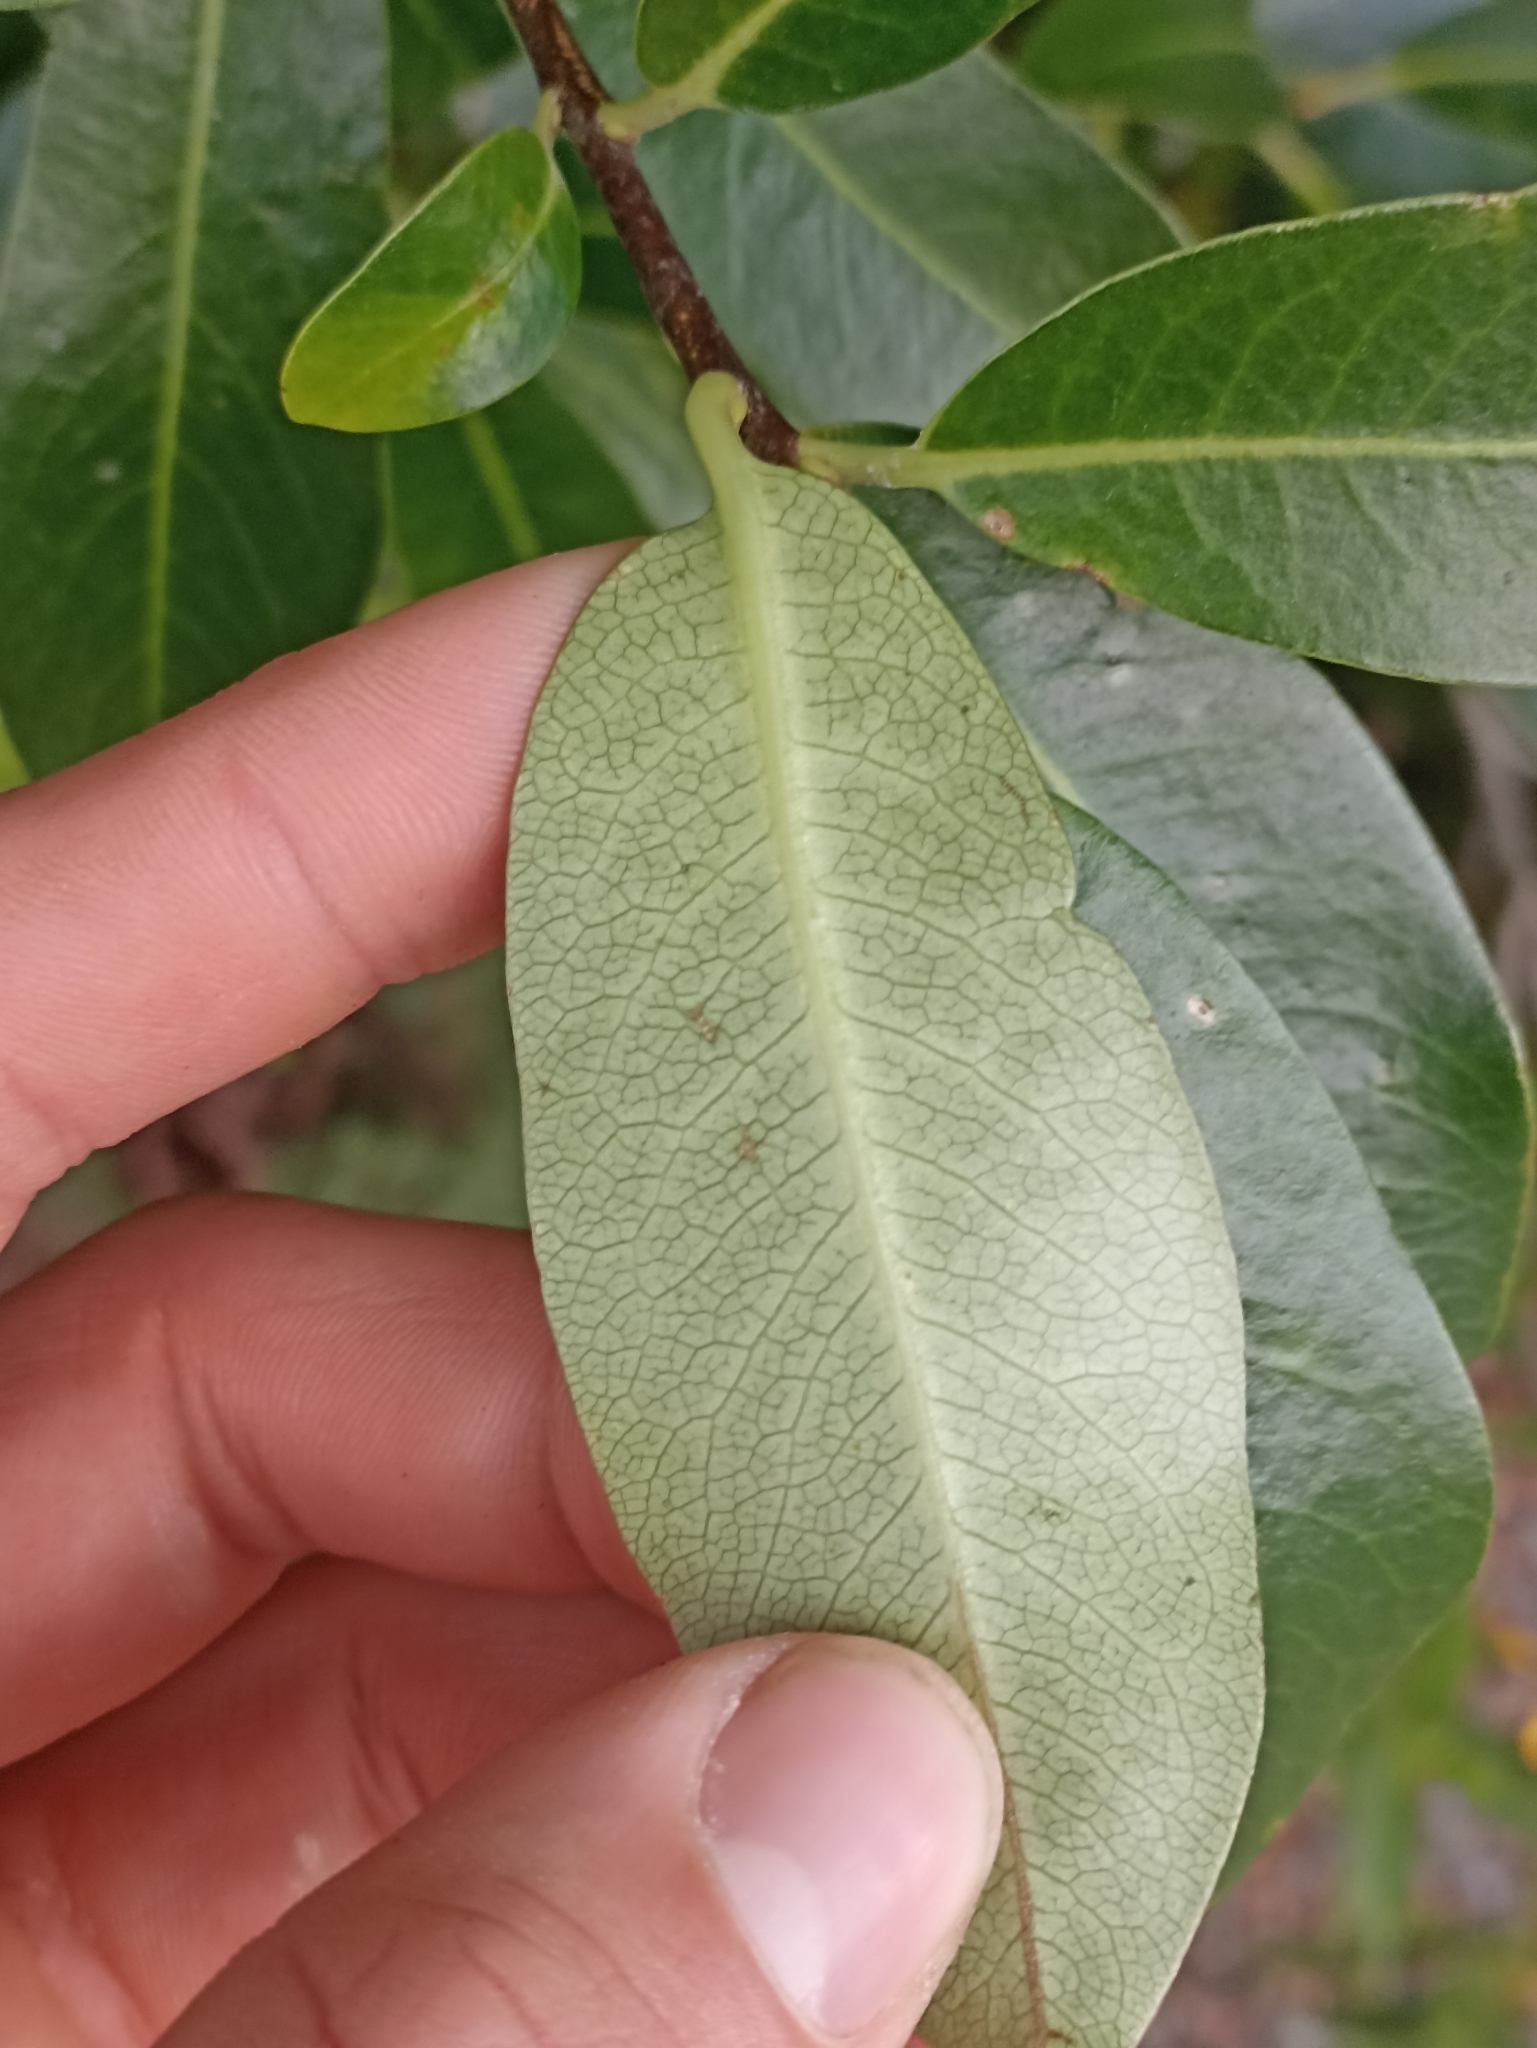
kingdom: Plantae
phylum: Tracheophyta
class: Magnoliopsida
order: Apiales
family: Pittosporaceae
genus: Pittosporum
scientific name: Pittosporum colensoi
